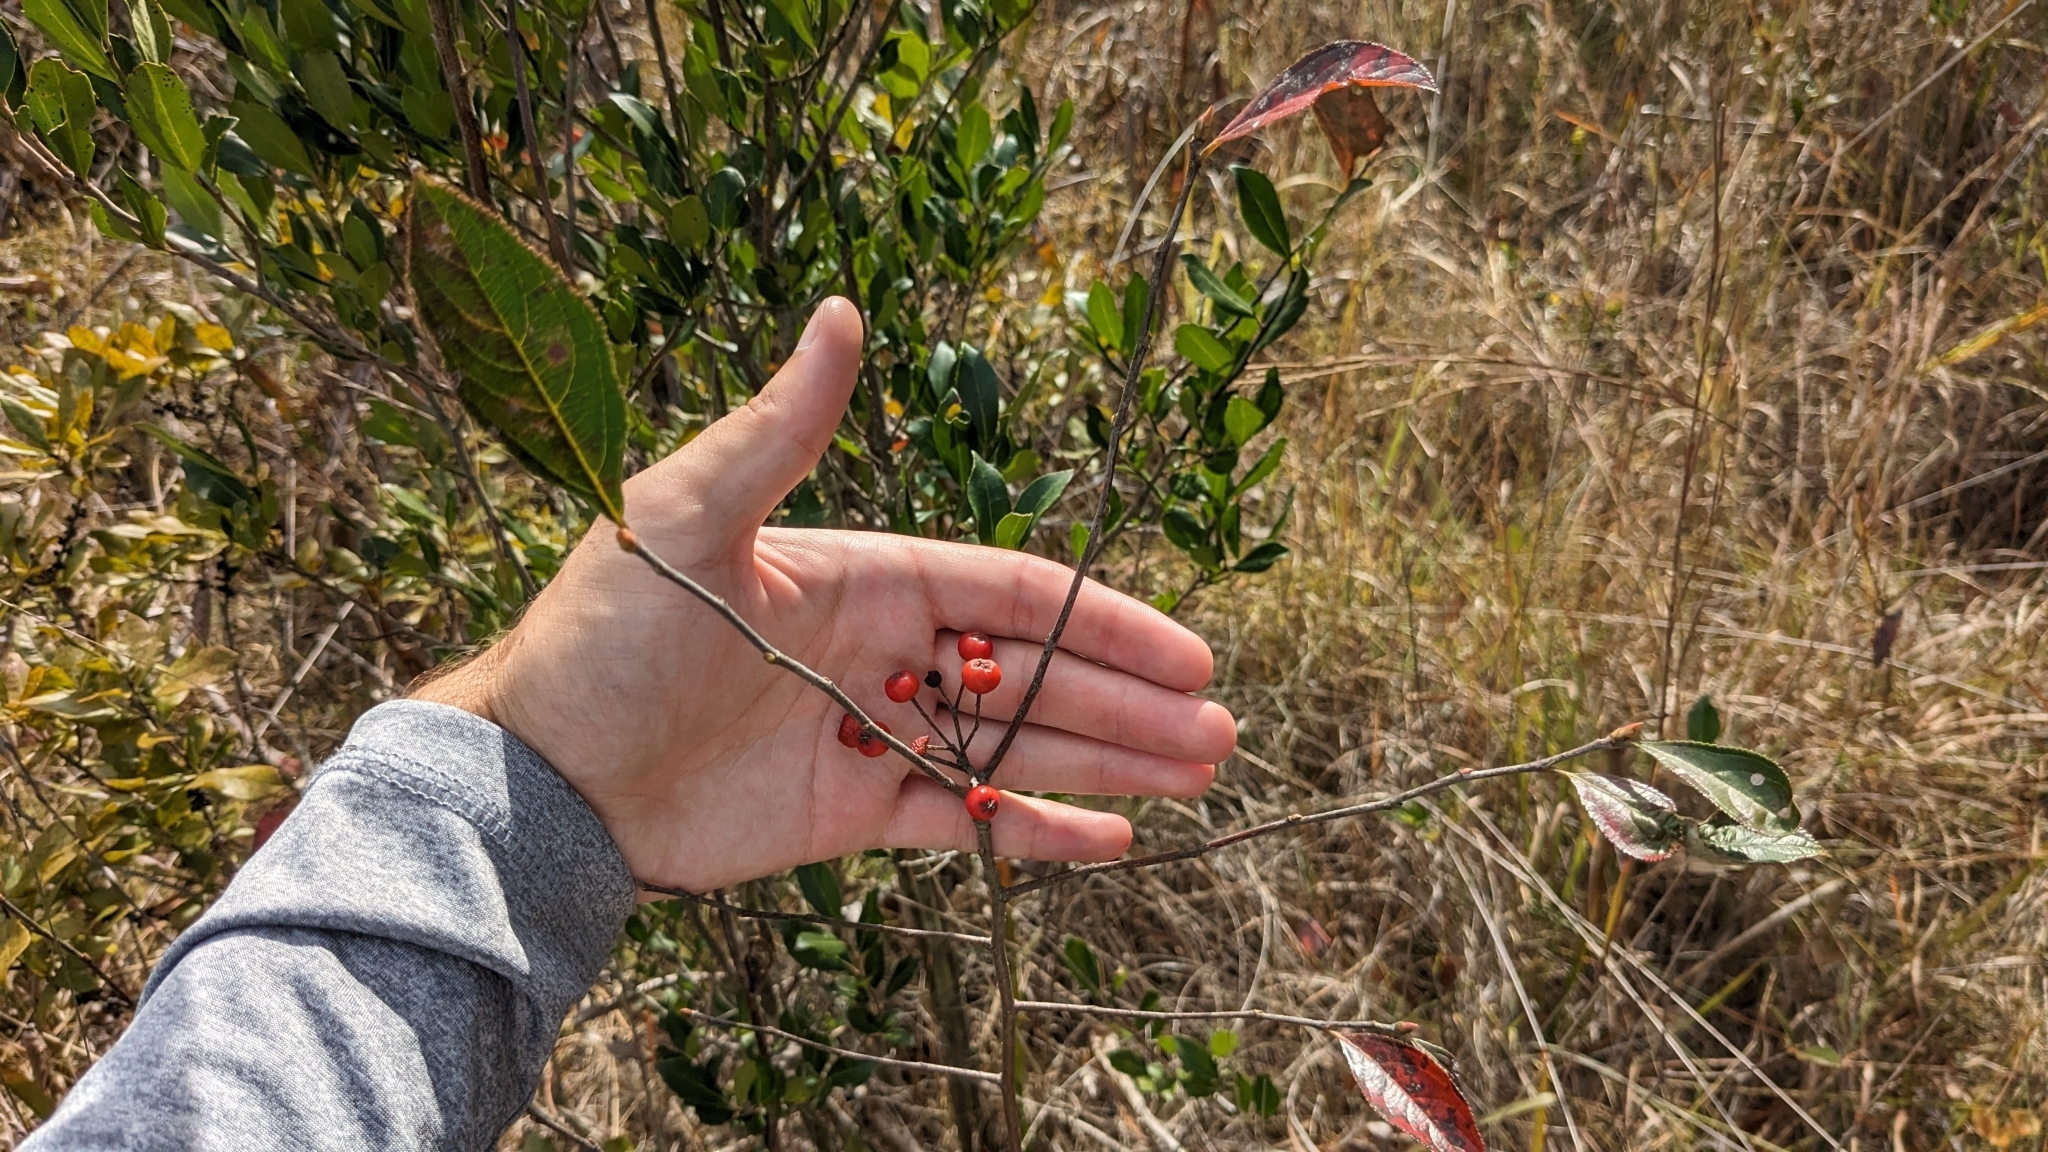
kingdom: Plantae
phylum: Tracheophyta
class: Magnoliopsida
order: Rosales
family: Rosaceae
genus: Aronia
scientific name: Aronia arbutifolia
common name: Red chokeberry
